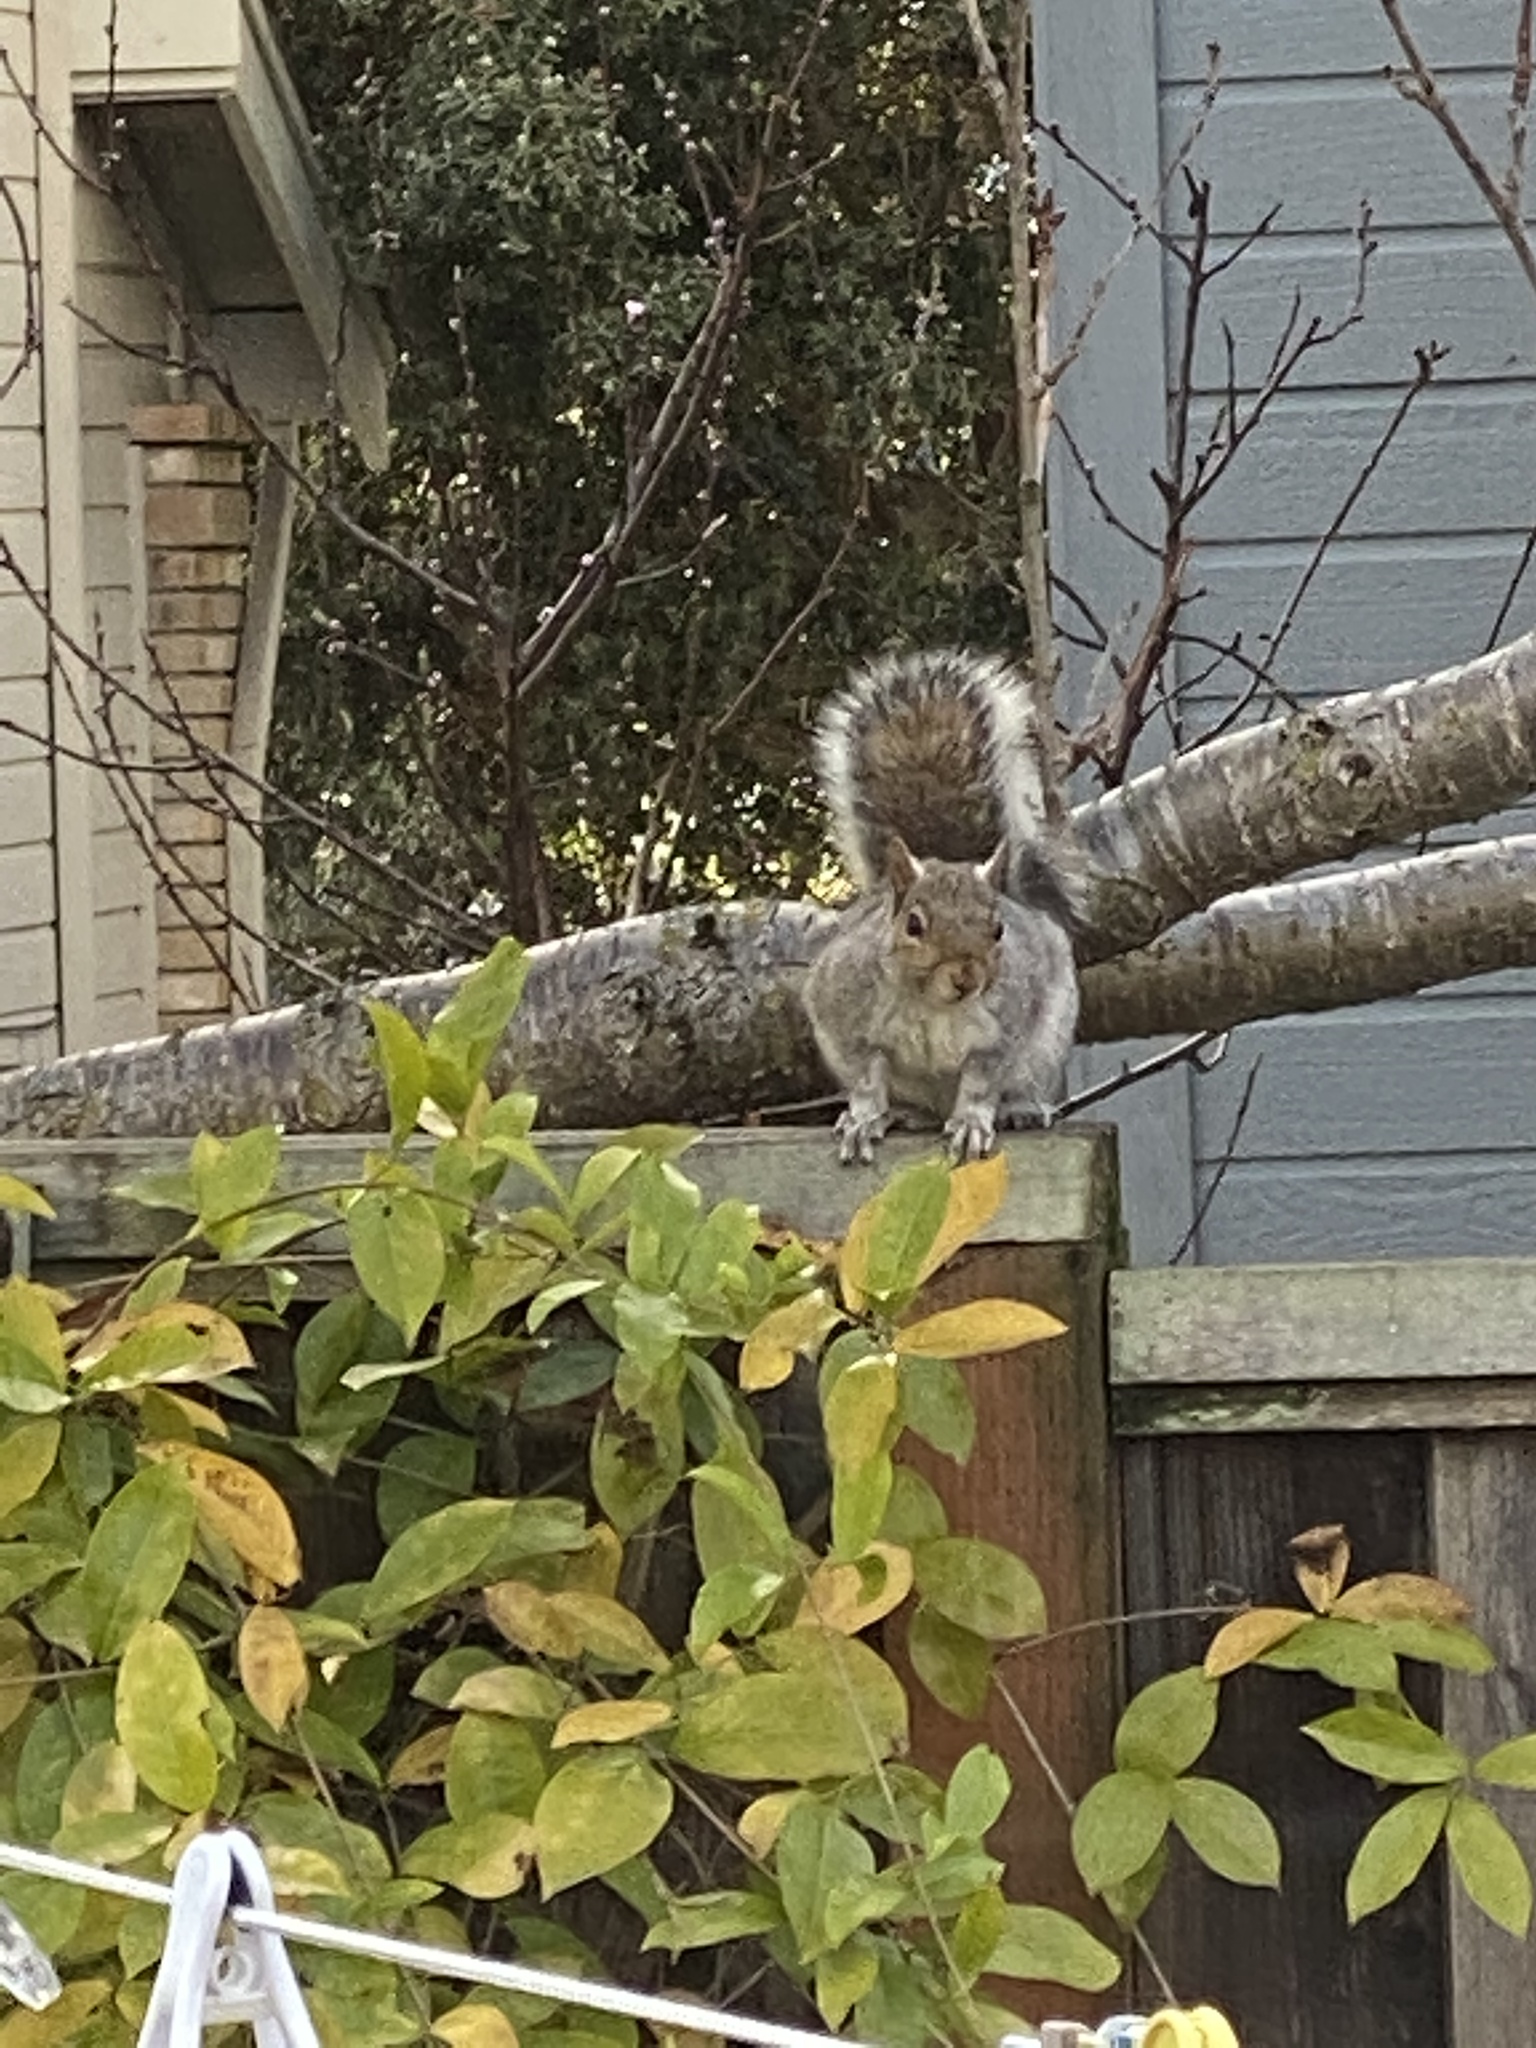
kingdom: Animalia
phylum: Chordata
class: Mammalia
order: Rodentia
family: Sciuridae
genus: Sciurus
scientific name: Sciurus carolinensis
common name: Eastern gray squirrel
